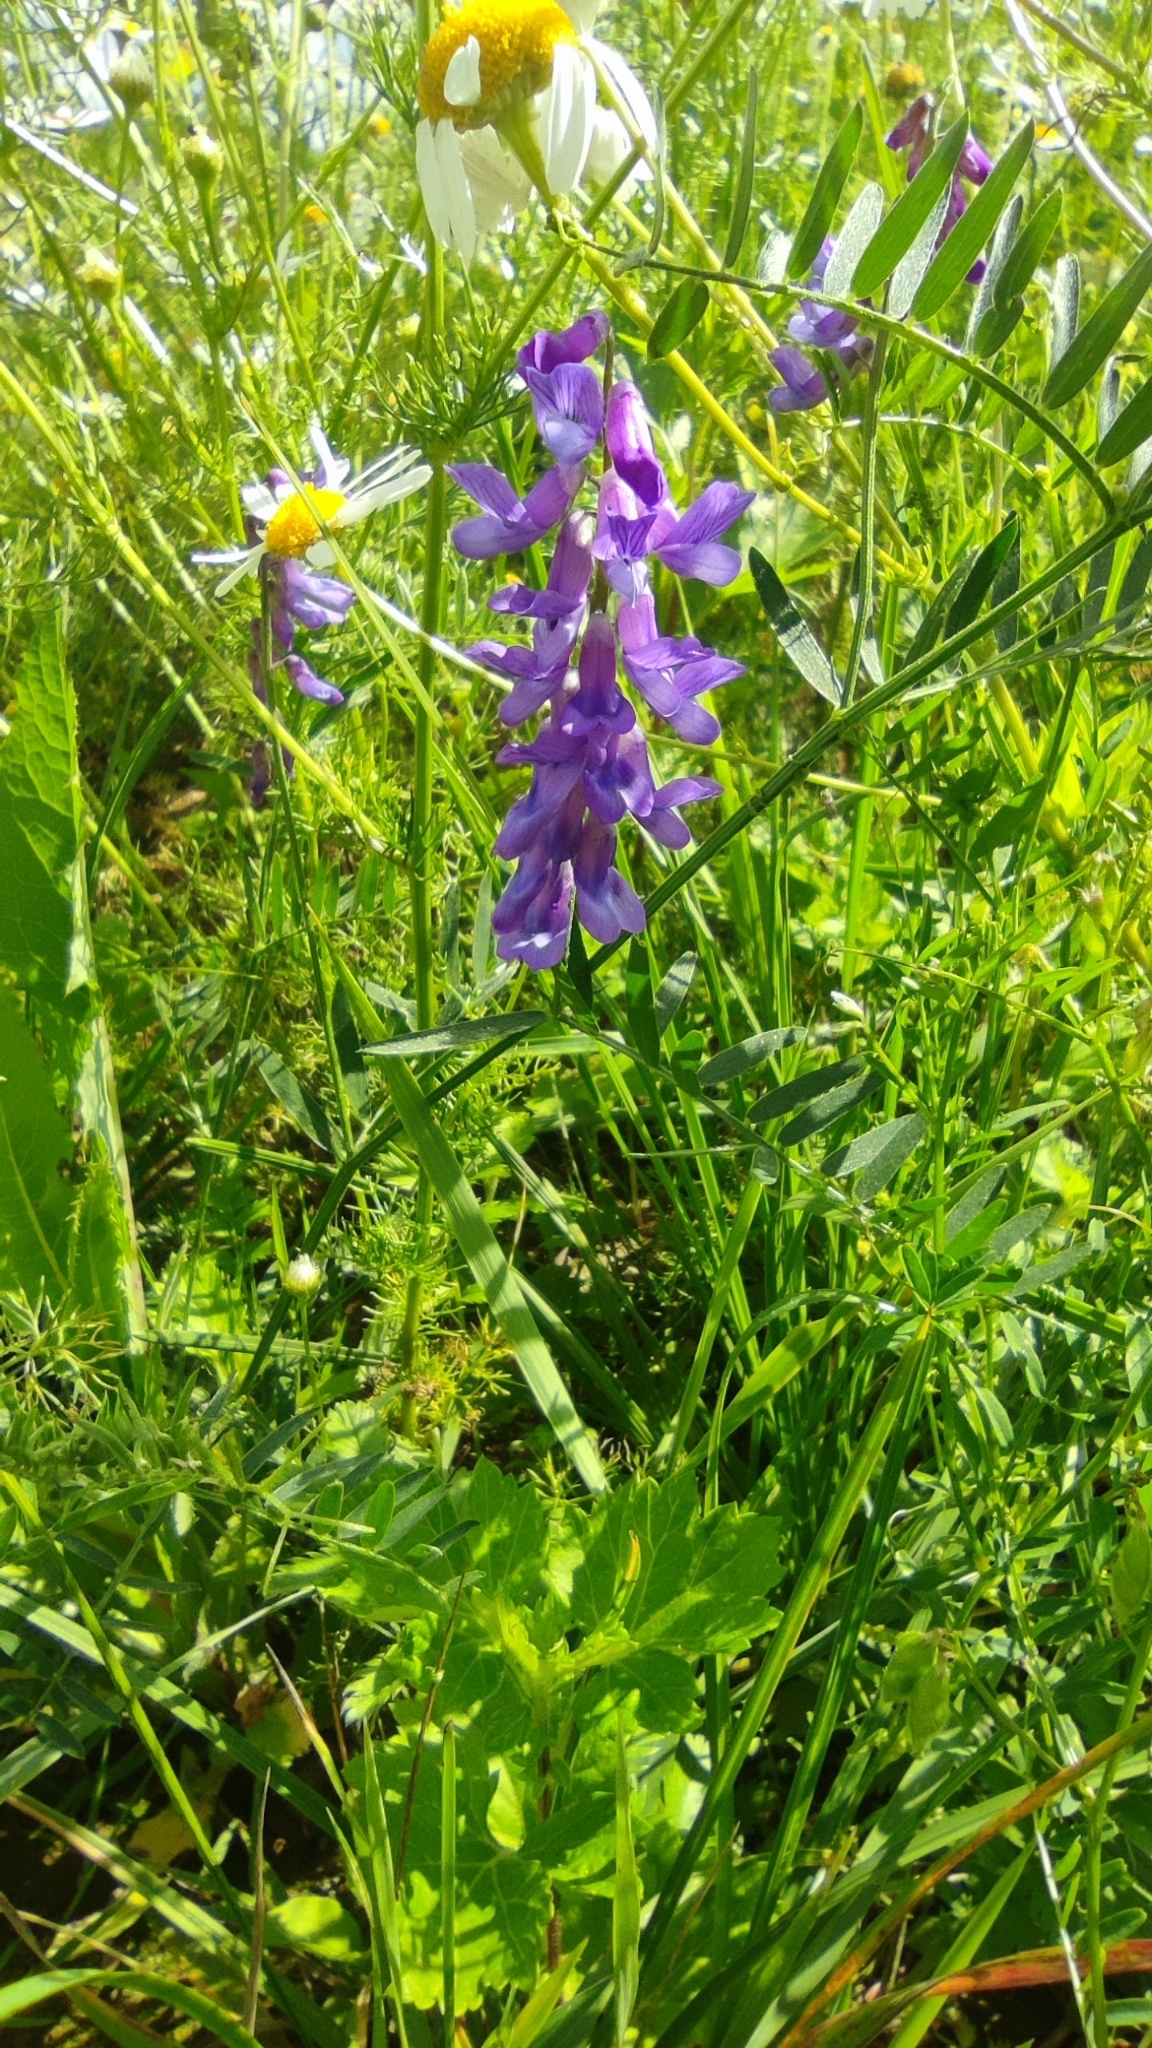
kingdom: Plantae
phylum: Tracheophyta
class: Magnoliopsida
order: Fabales
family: Fabaceae
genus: Vicia
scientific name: Vicia cracca
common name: Bird vetch
